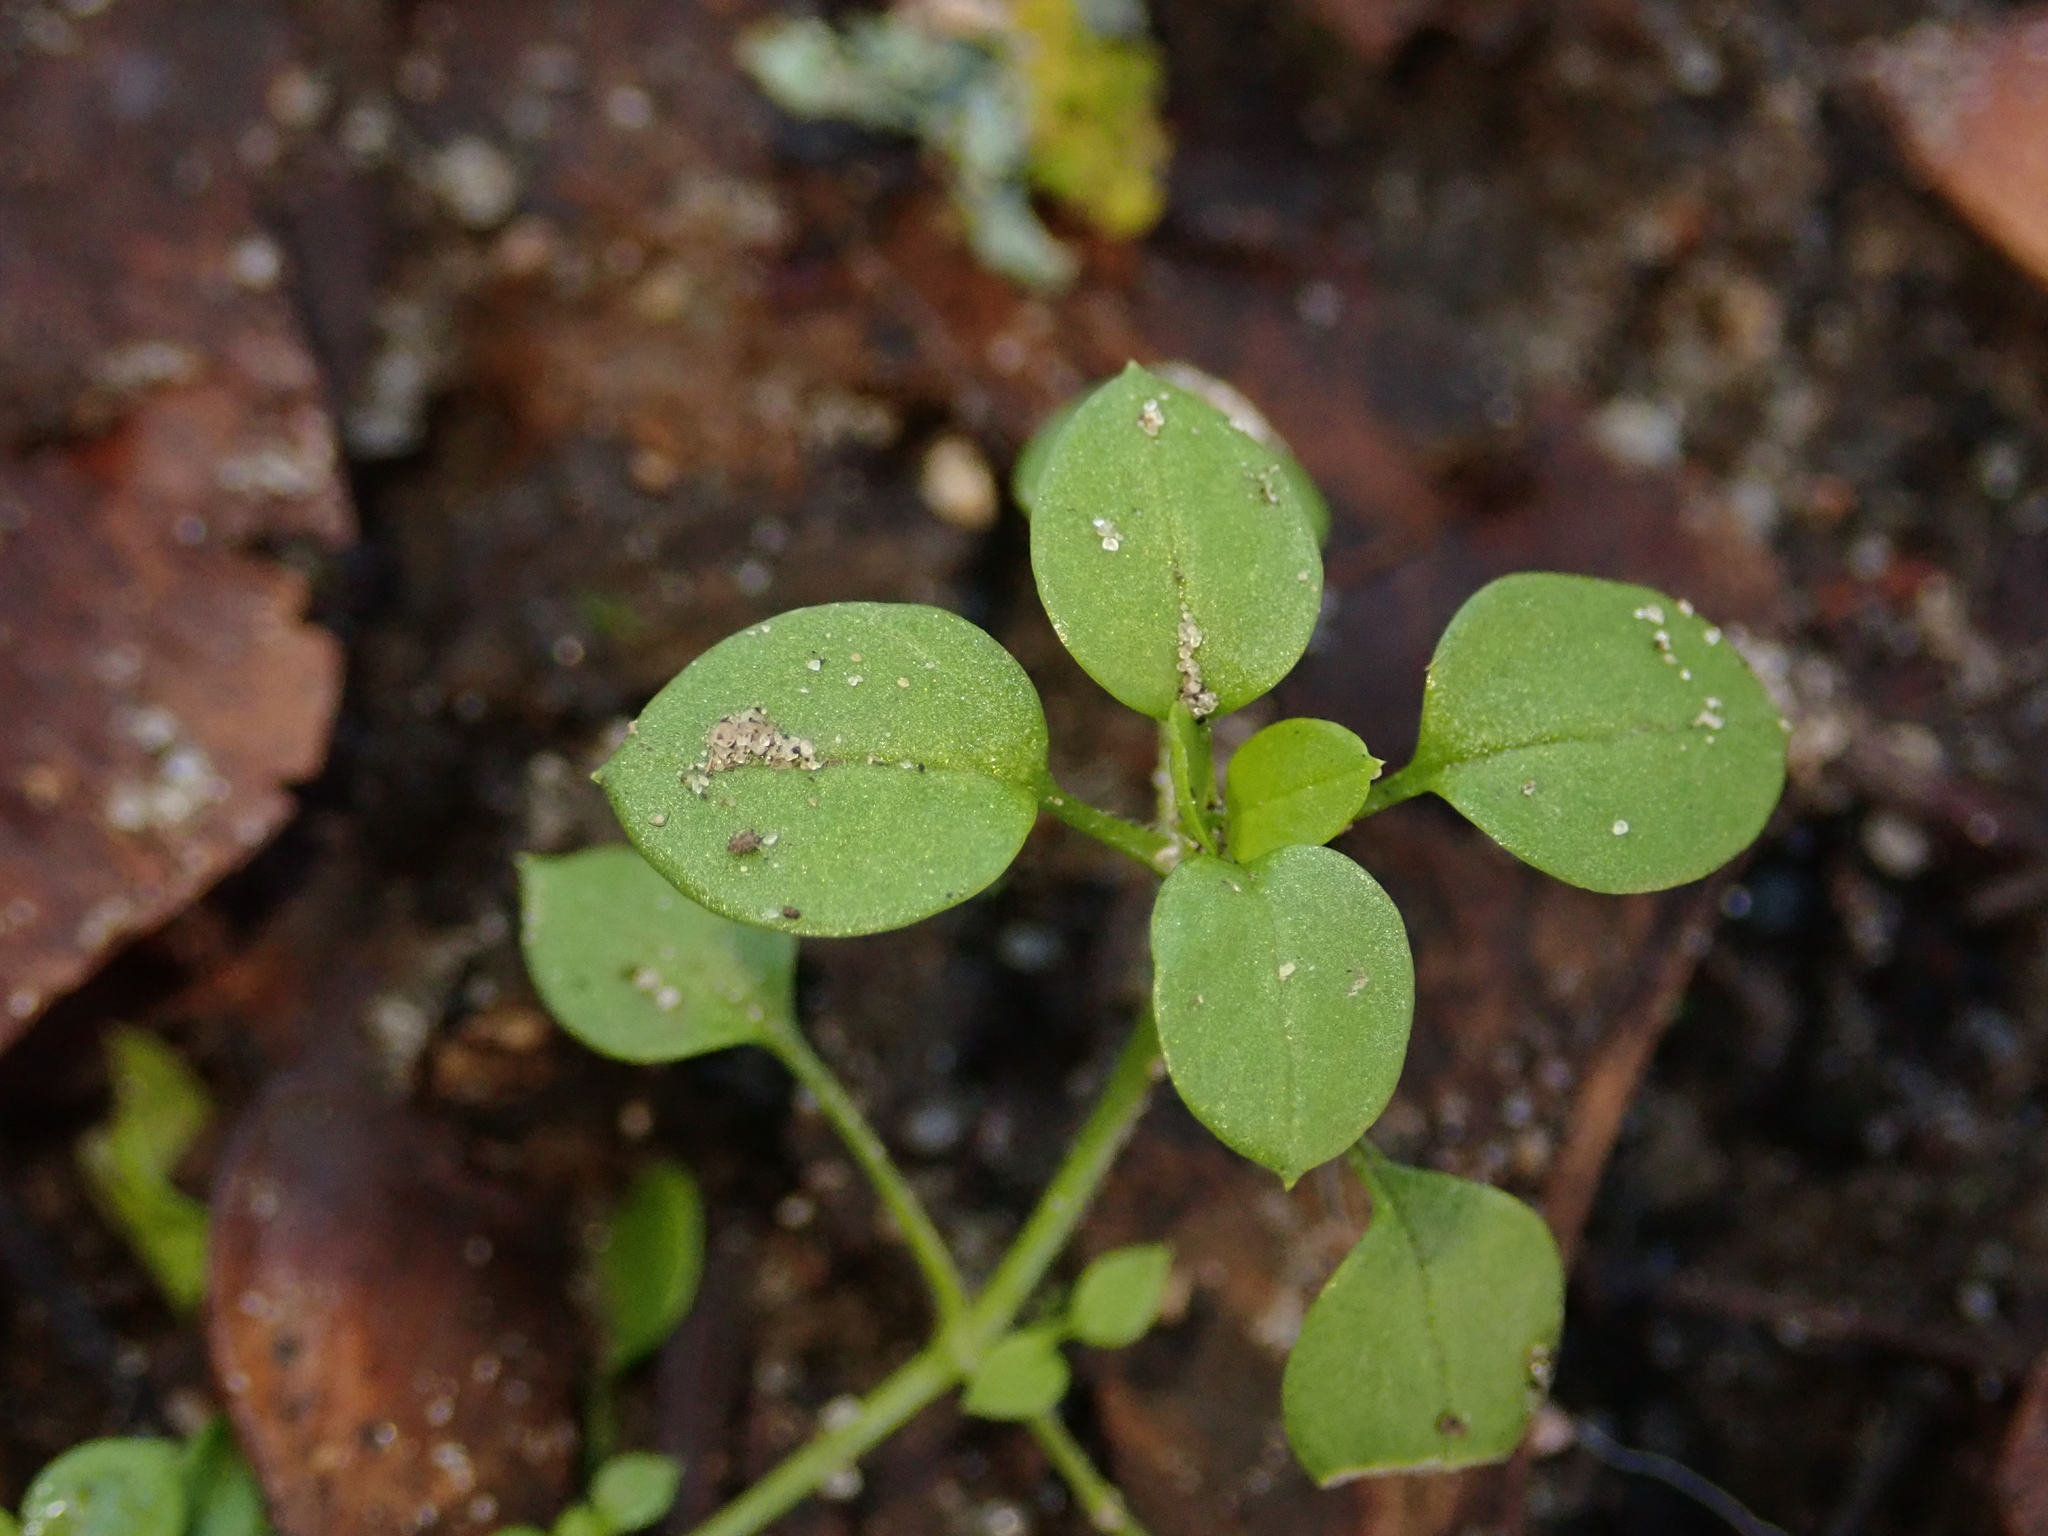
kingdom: Plantae
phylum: Tracheophyta
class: Magnoliopsida
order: Caryophyllales
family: Caryophyllaceae
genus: Stellaria
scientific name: Stellaria media
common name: Common chickweed
